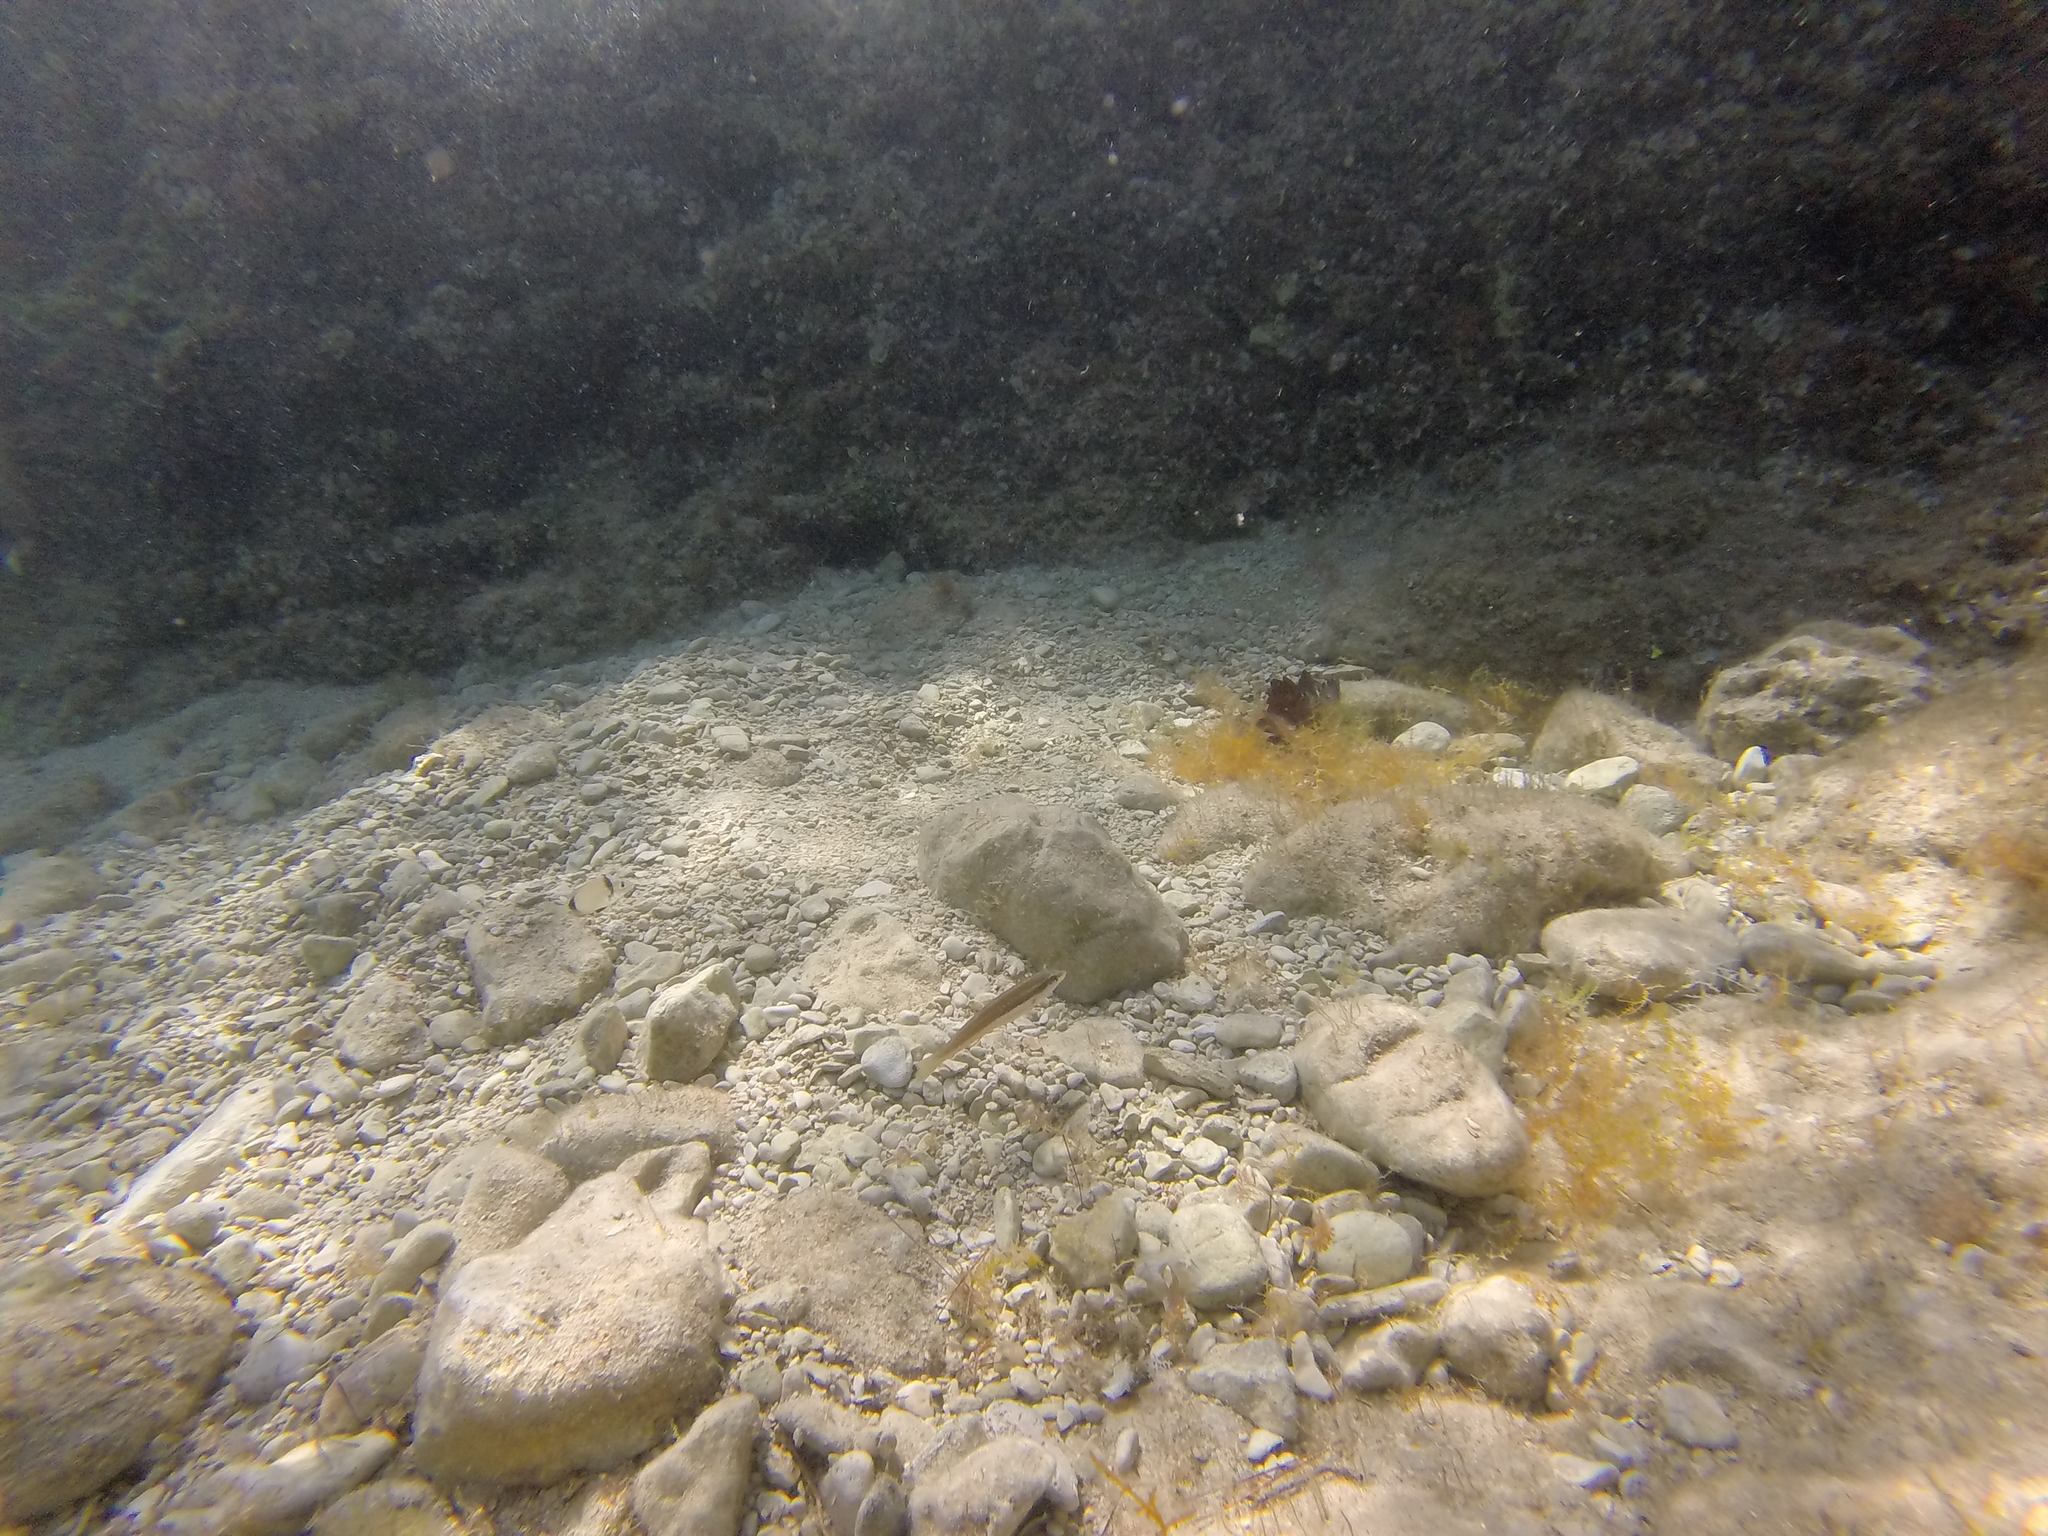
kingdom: Animalia
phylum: Chordata
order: Perciformes
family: Labridae
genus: Coris
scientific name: Coris julis
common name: Rainbow wrasse
